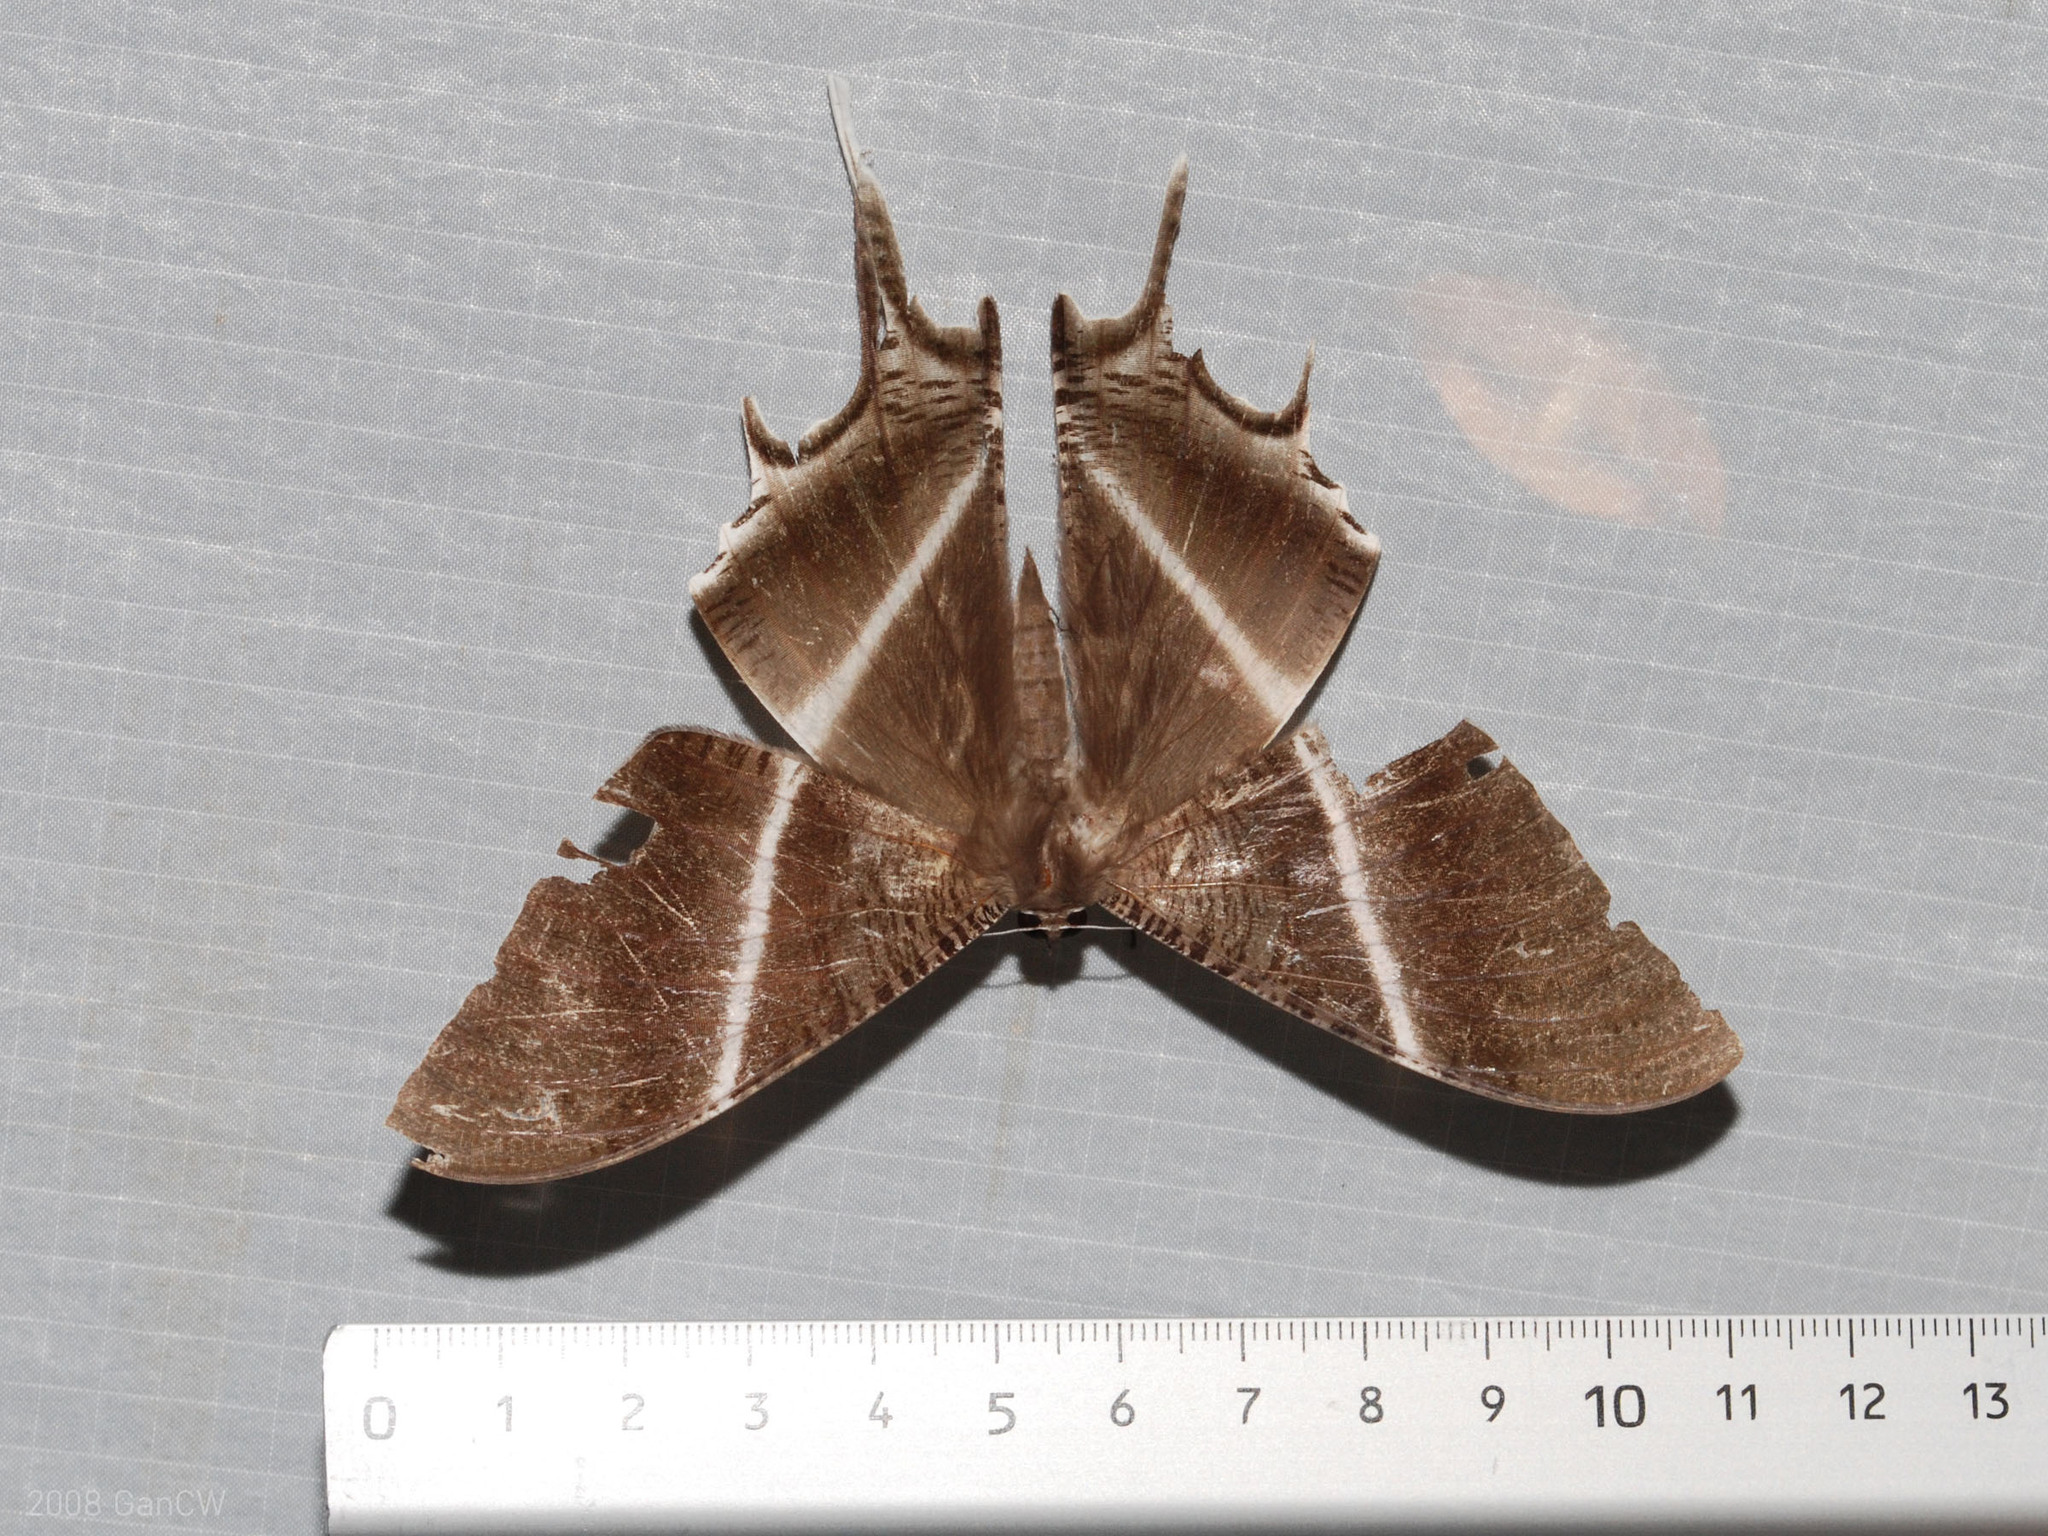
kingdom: Animalia
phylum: Arthropoda
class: Insecta
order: Lepidoptera
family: Uraniidae
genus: Lyssa
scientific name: Lyssa zampa
